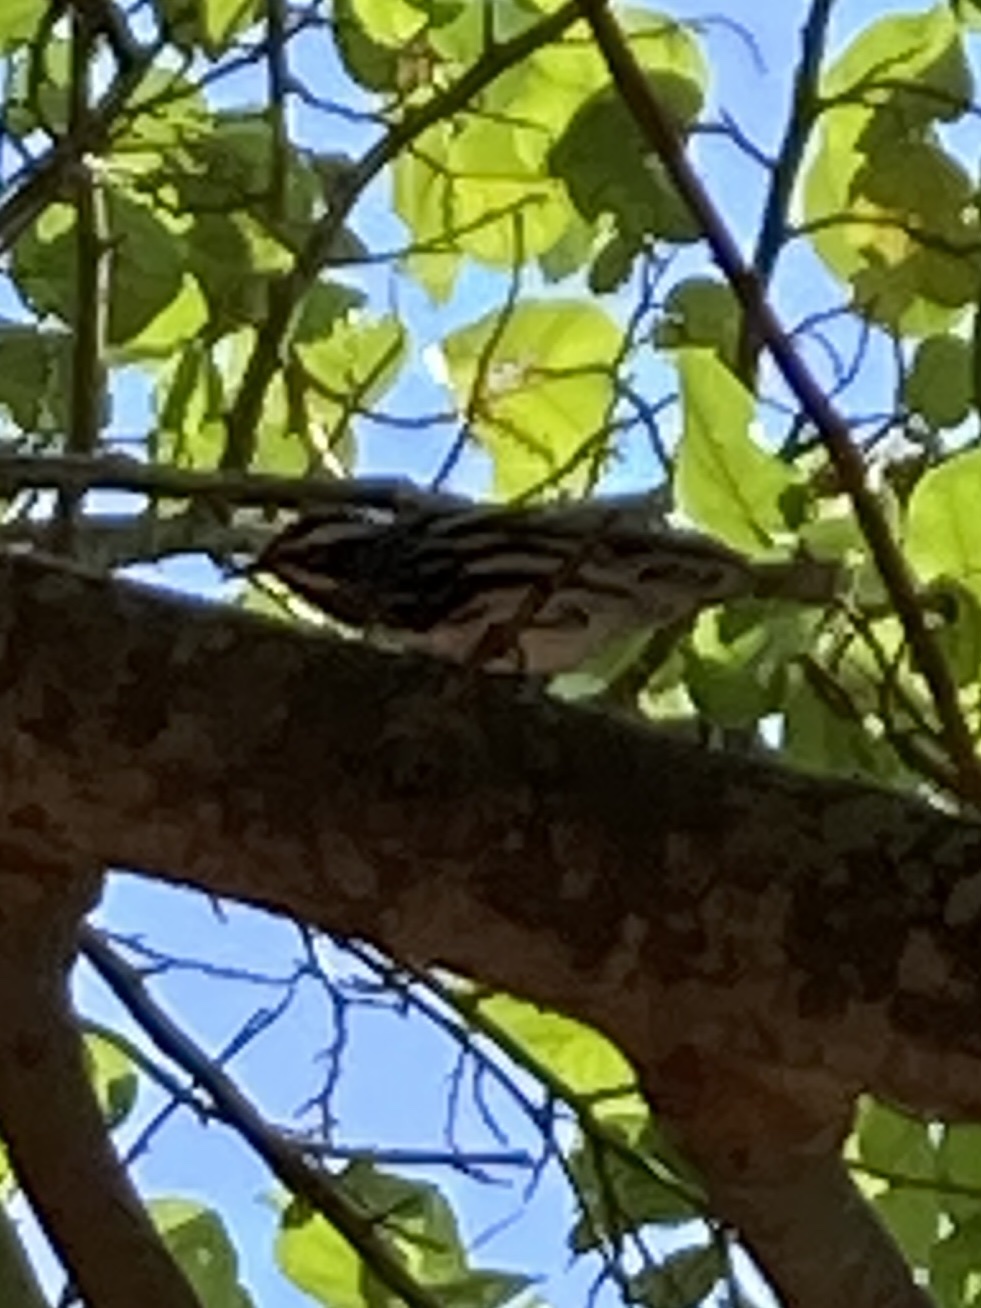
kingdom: Animalia
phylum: Chordata
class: Aves
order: Passeriformes
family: Parulidae
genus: Mniotilta
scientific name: Mniotilta varia
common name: Black-and-white warbler
